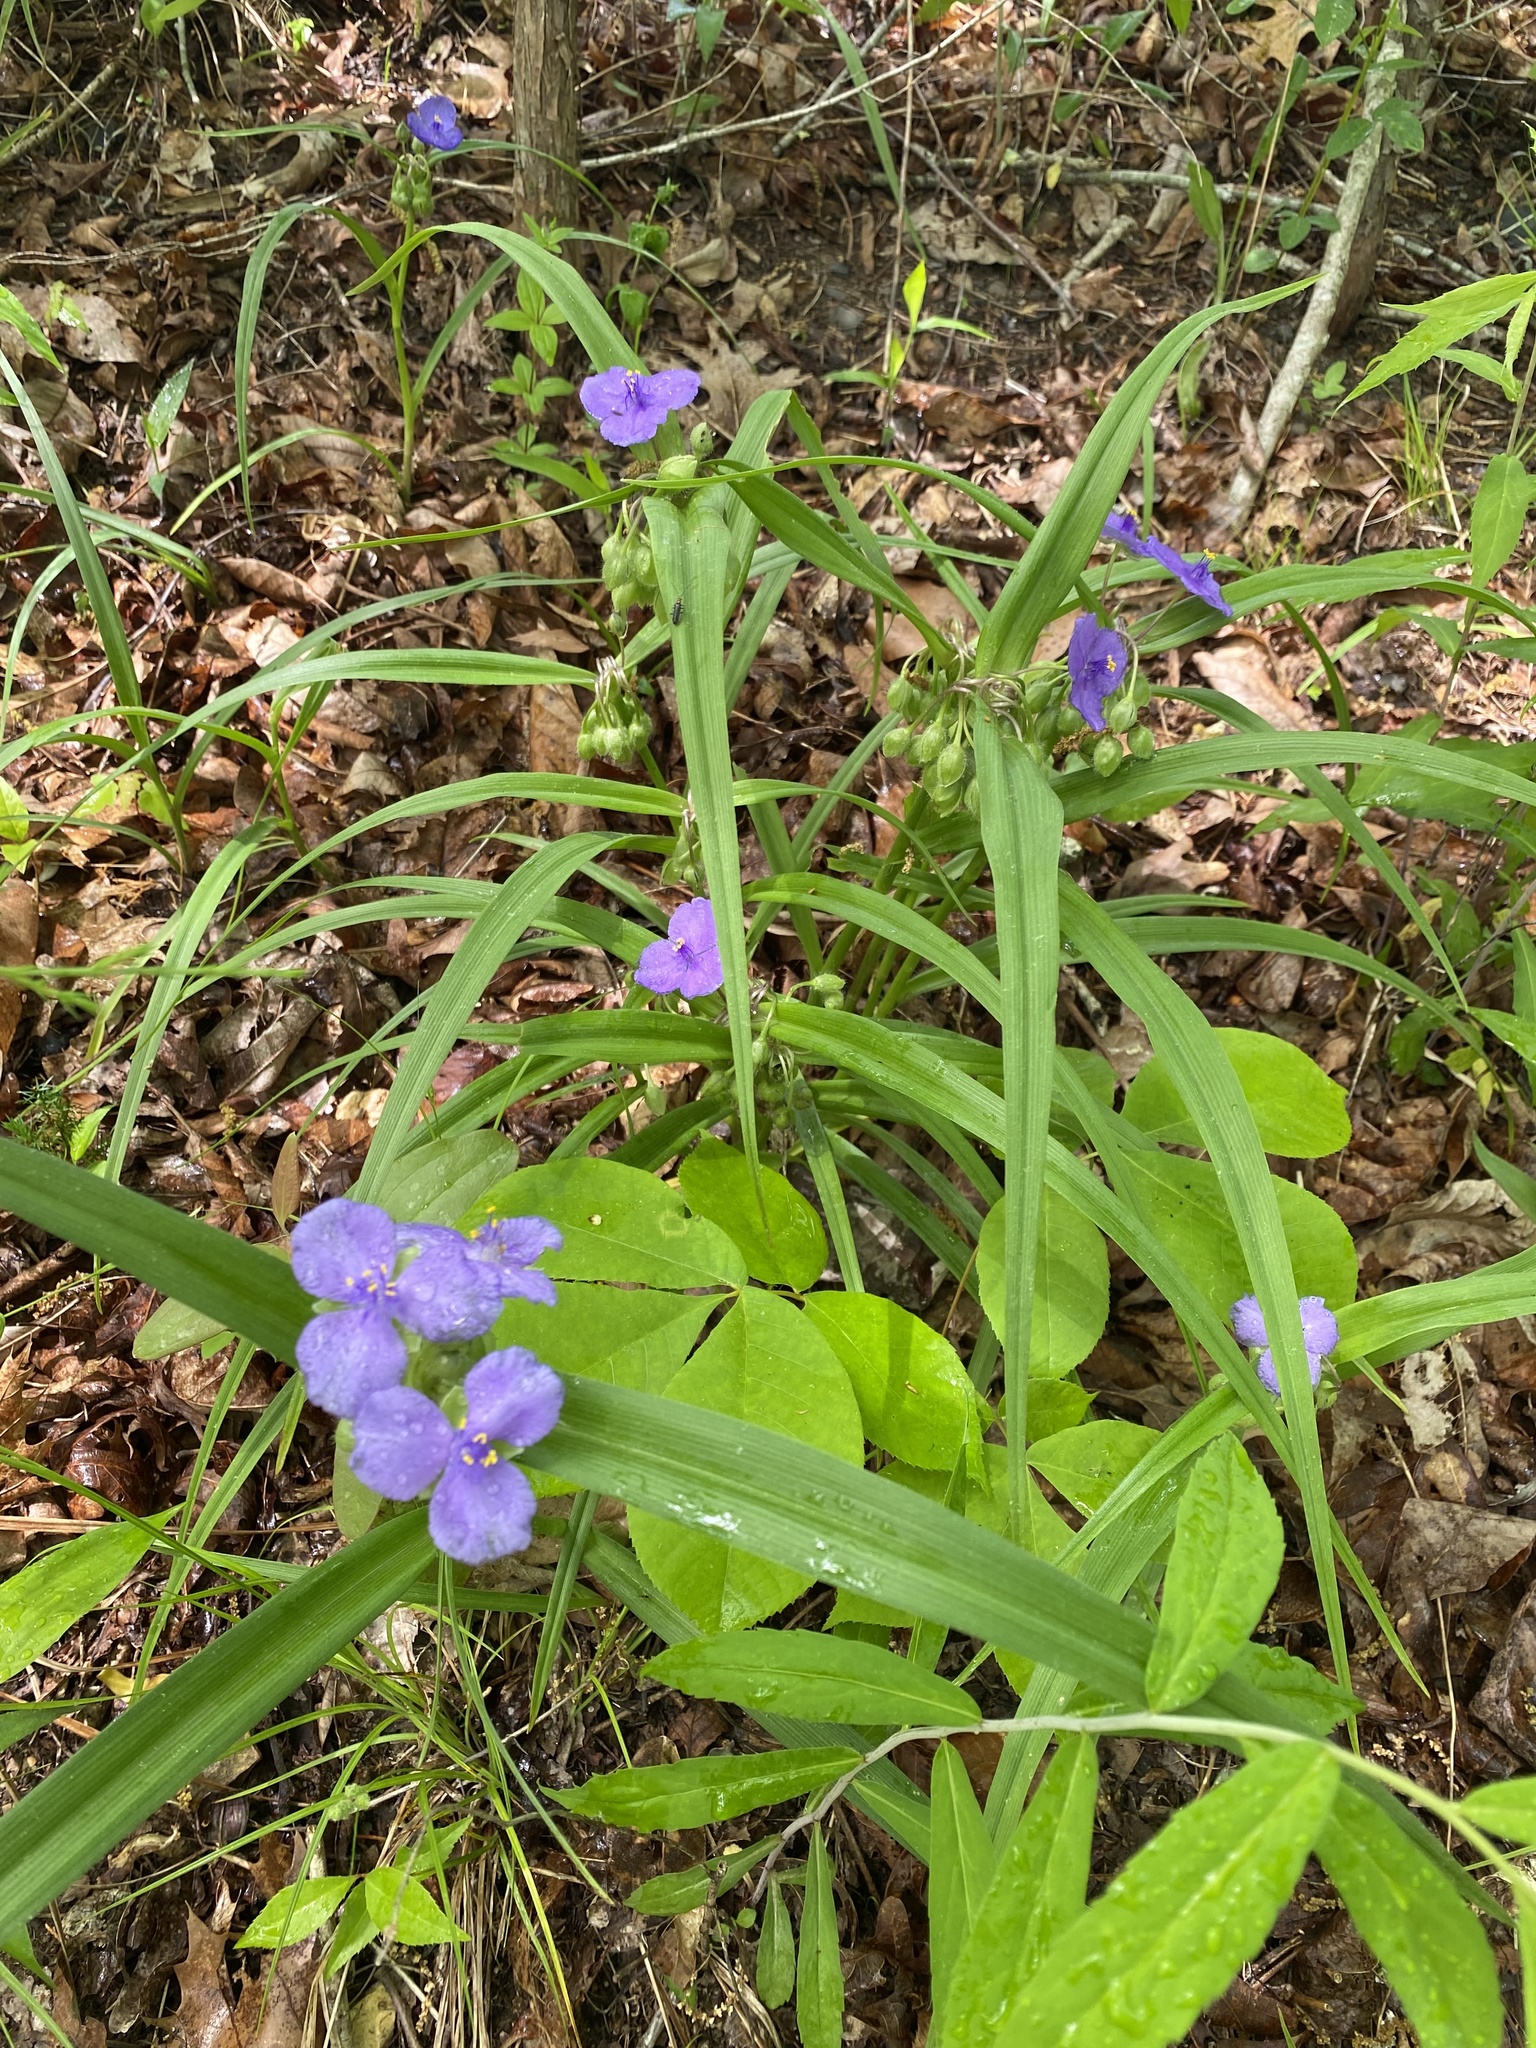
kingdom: Plantae
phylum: Tracheophyta
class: Liliopsida
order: Commelinales
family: Commelinaceae
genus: Tradescantia
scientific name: Tradescantia virginiana
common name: Spiderwort
